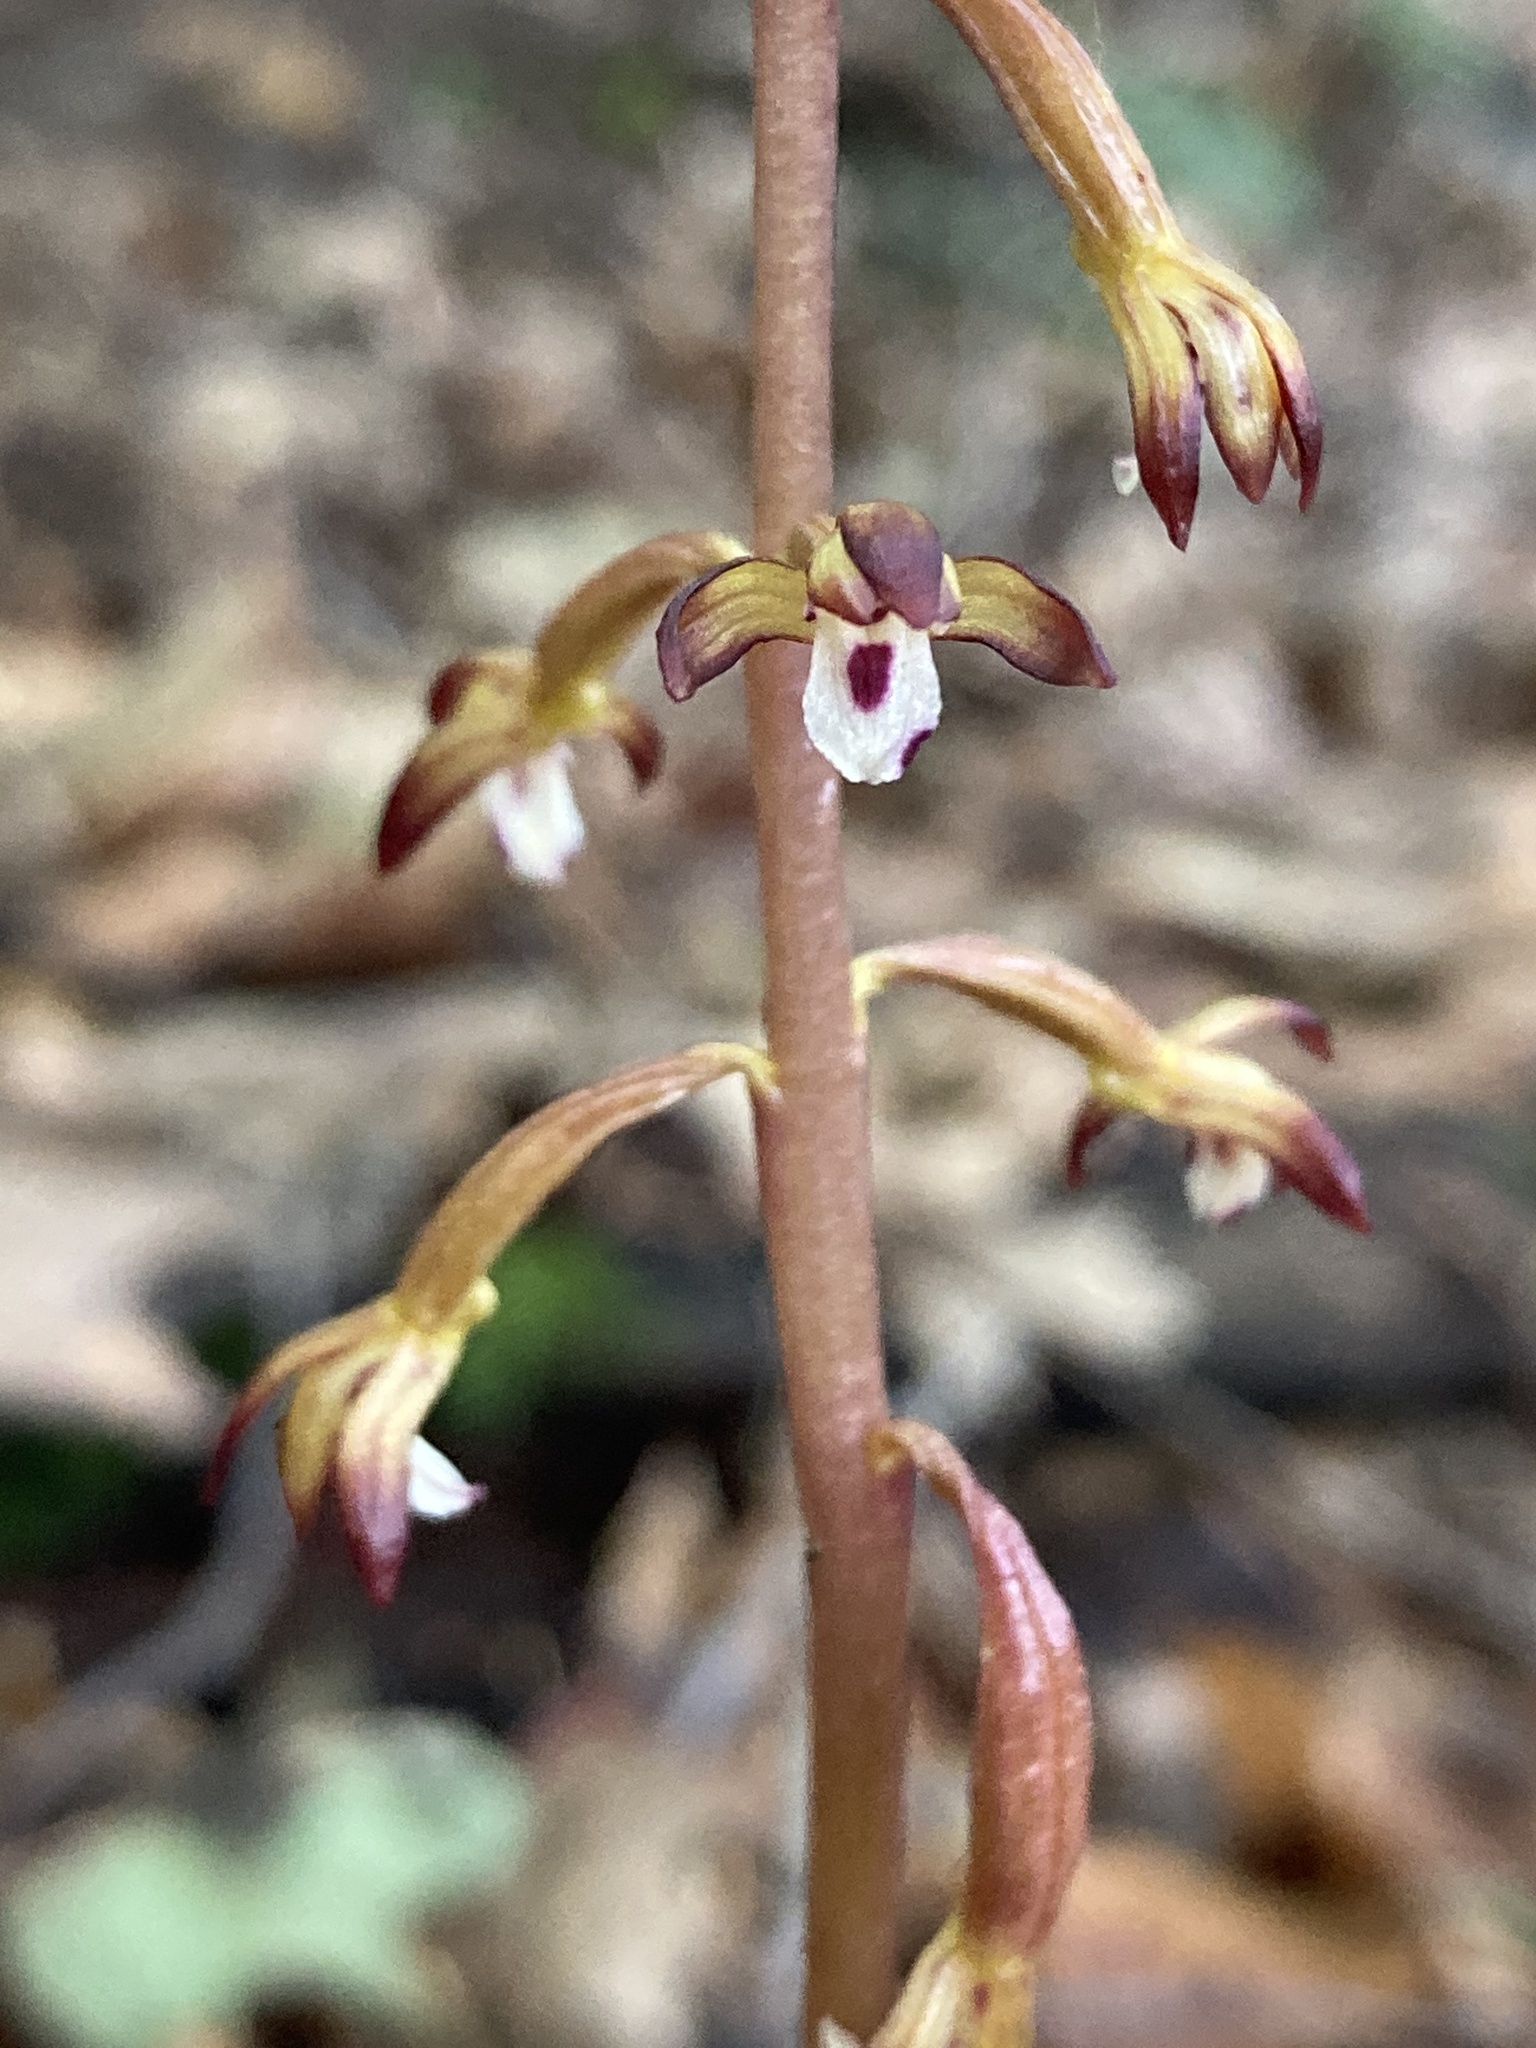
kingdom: Plantae
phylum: Tracheophyta
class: Liliopsida
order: Asparagales
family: Orchidaceae
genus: Corallorhiza
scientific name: Corallorhiza maculata
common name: Spotted coralroot
